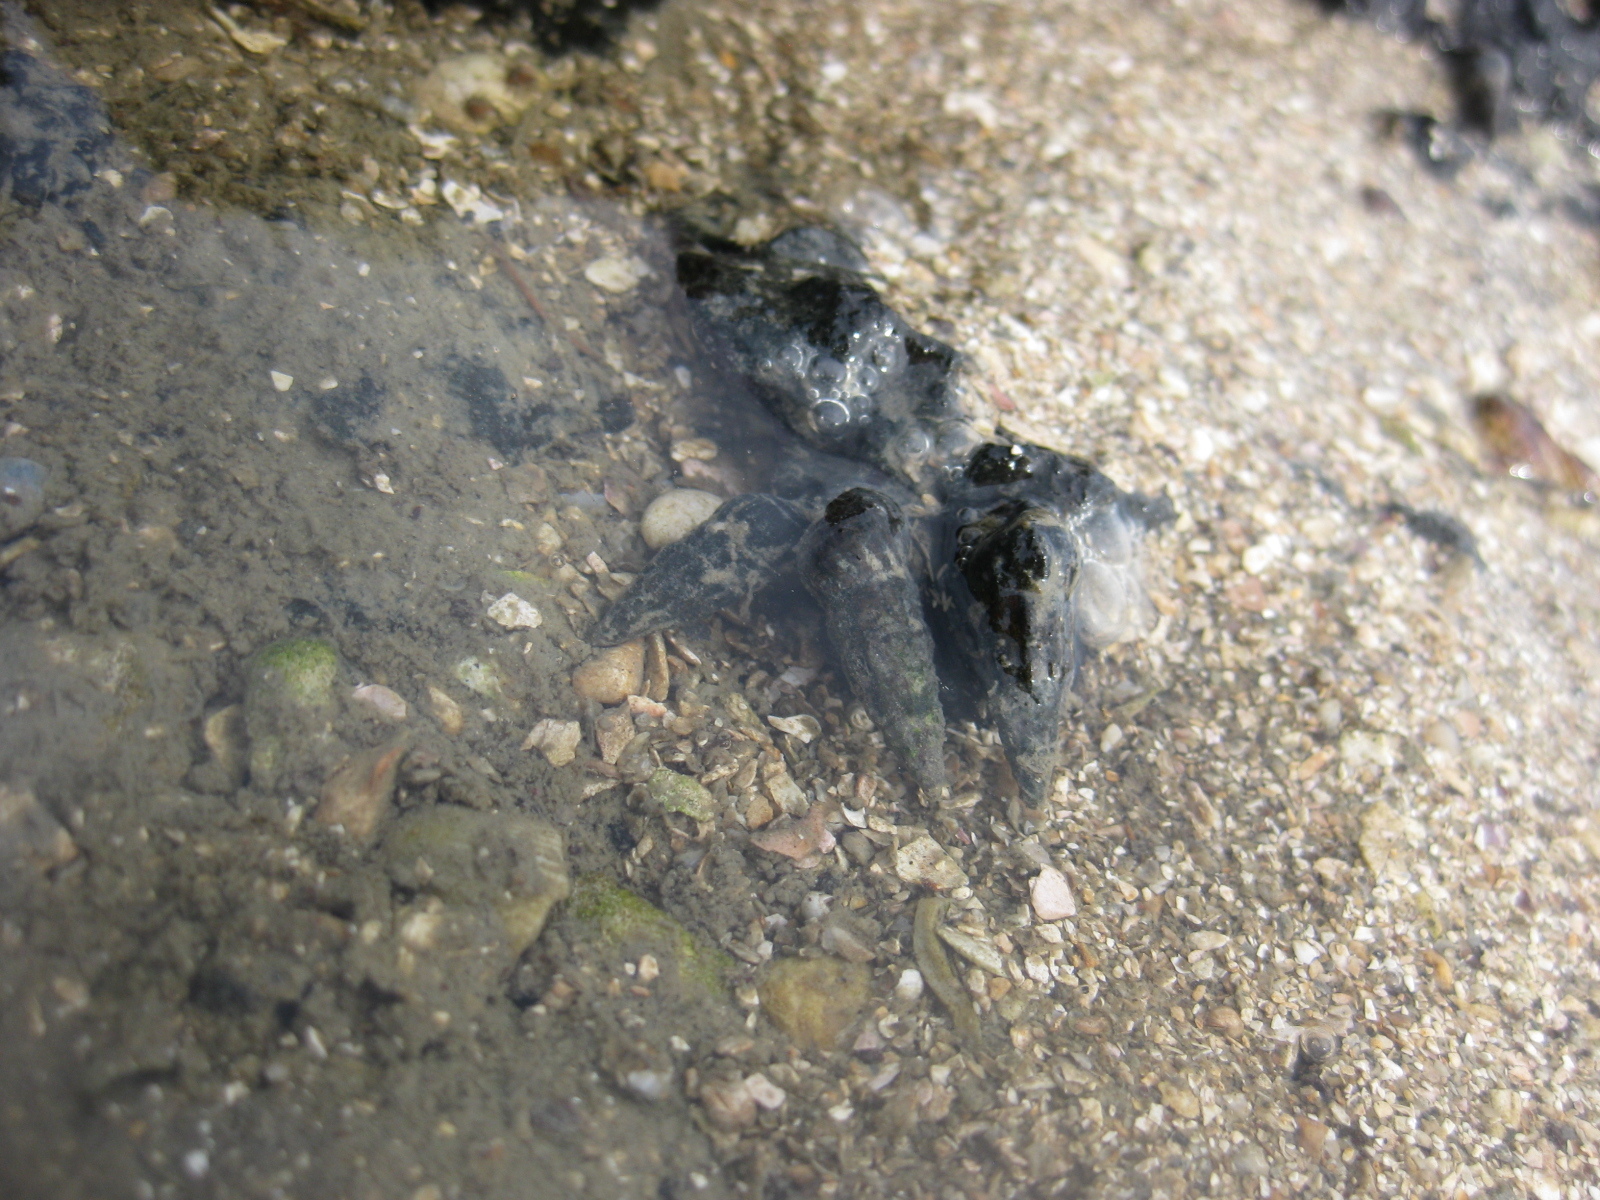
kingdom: Animalia
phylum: Mollusca
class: Gastropoda
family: Batillariidae
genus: Zeacumantus
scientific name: Zeacumantus lutulentus
